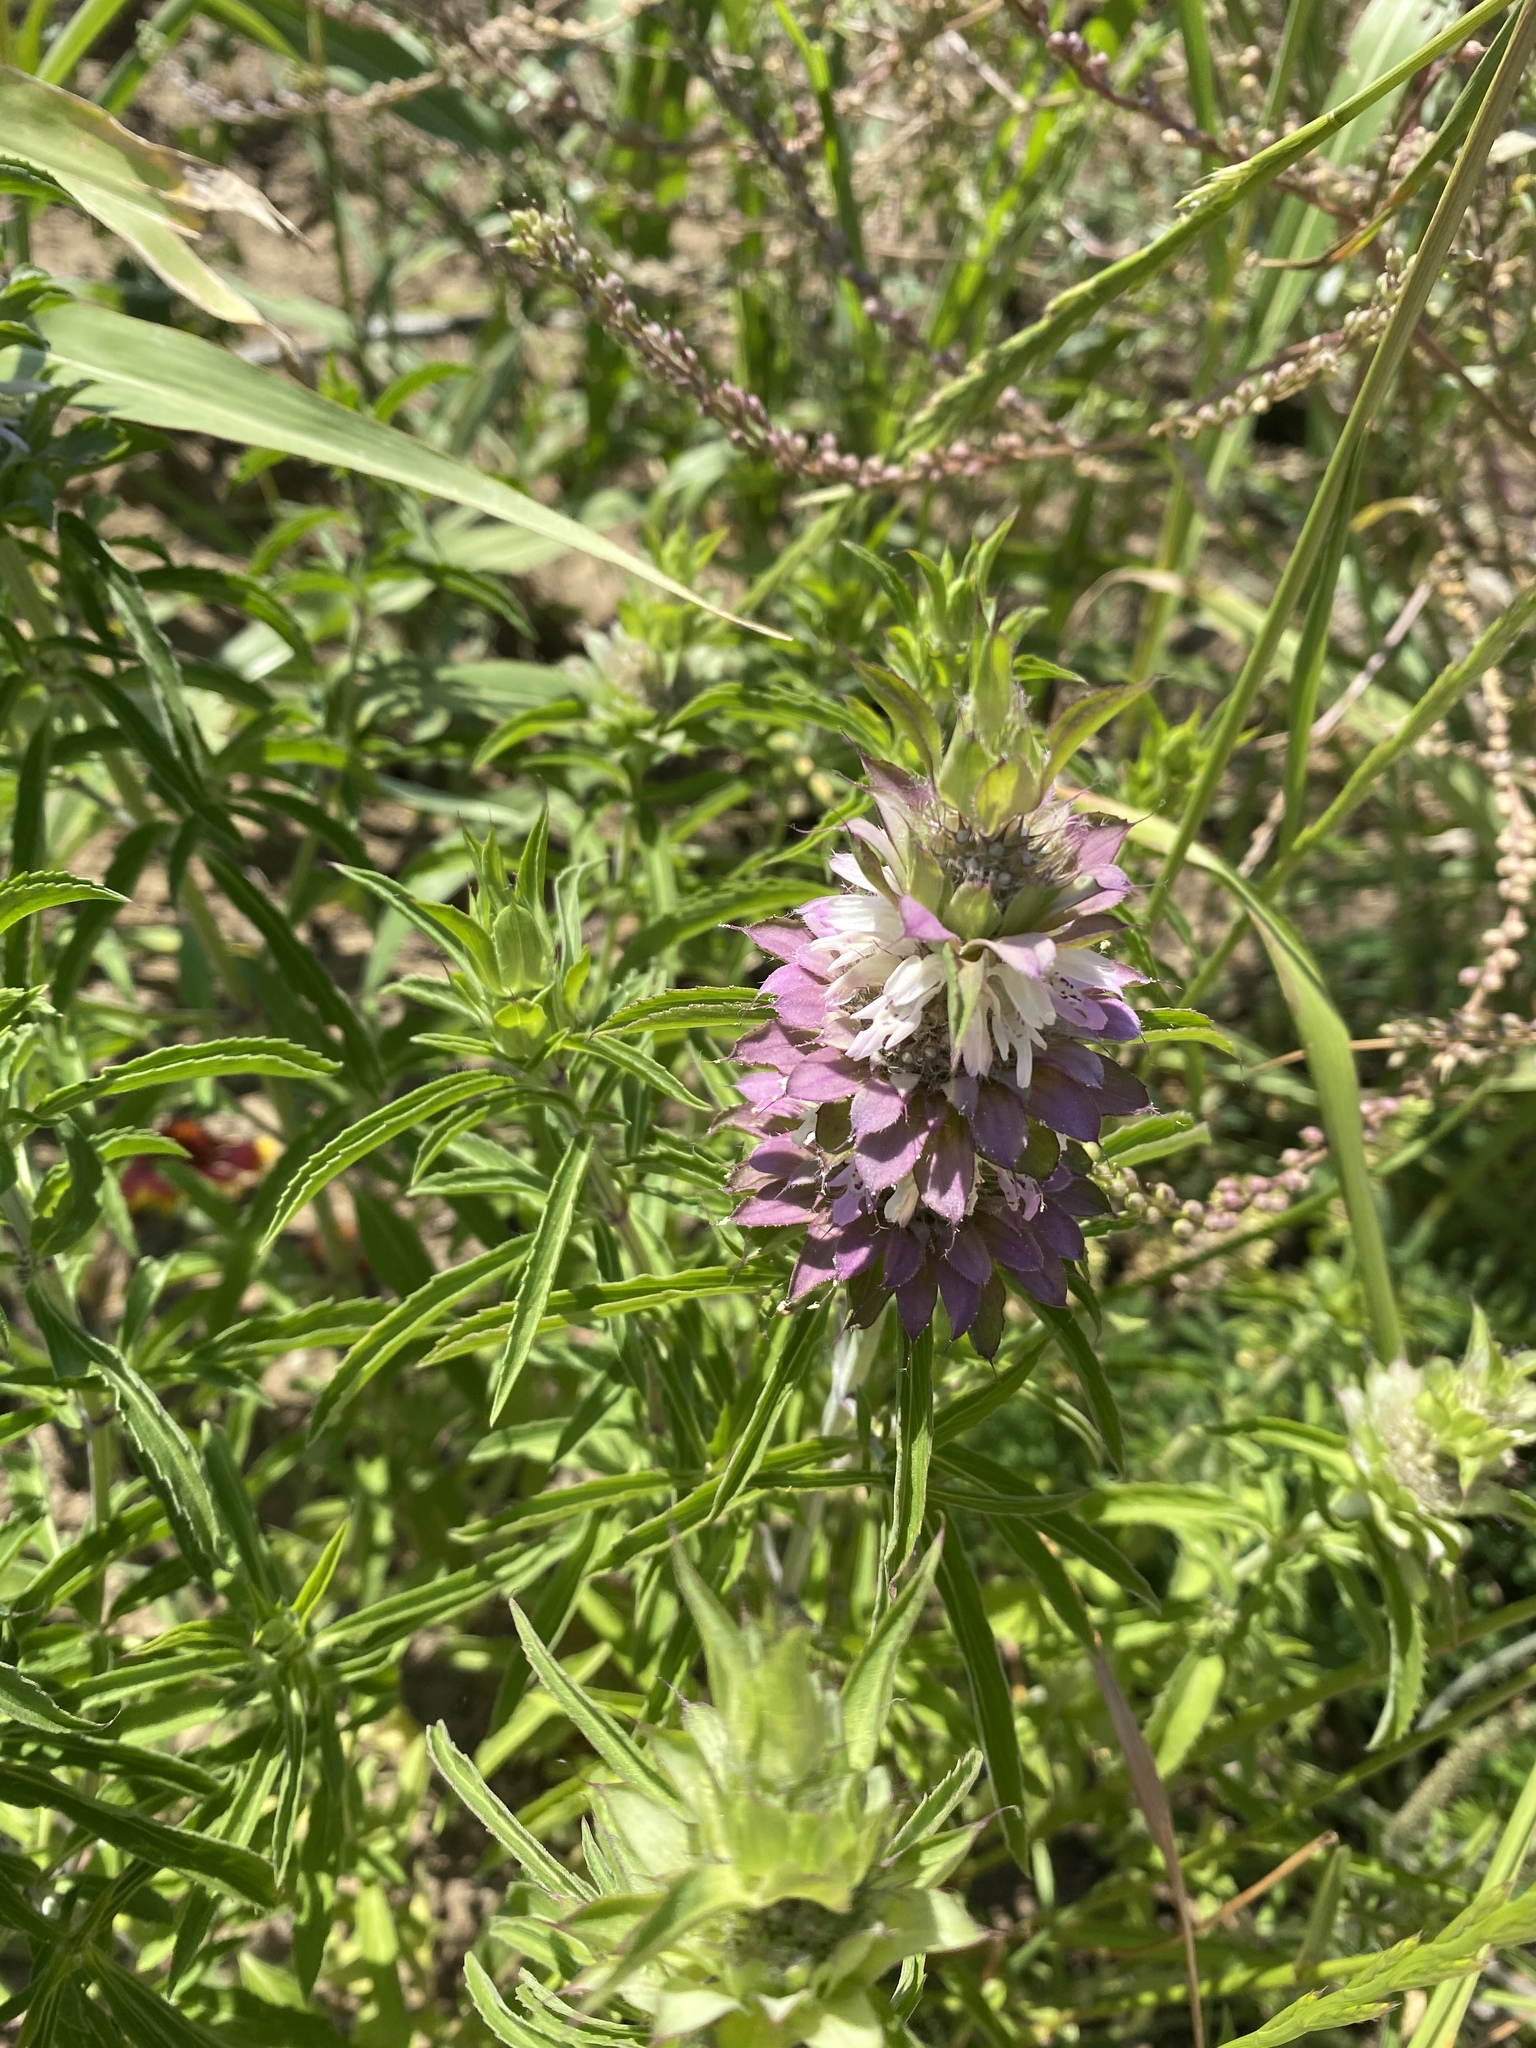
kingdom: Plantae
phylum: Tracheophyta
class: Magnoliopsida
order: Lamiales
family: Lamiaceae
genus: Monarda
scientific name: Monarda citriodora
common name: Lemon beebalm
